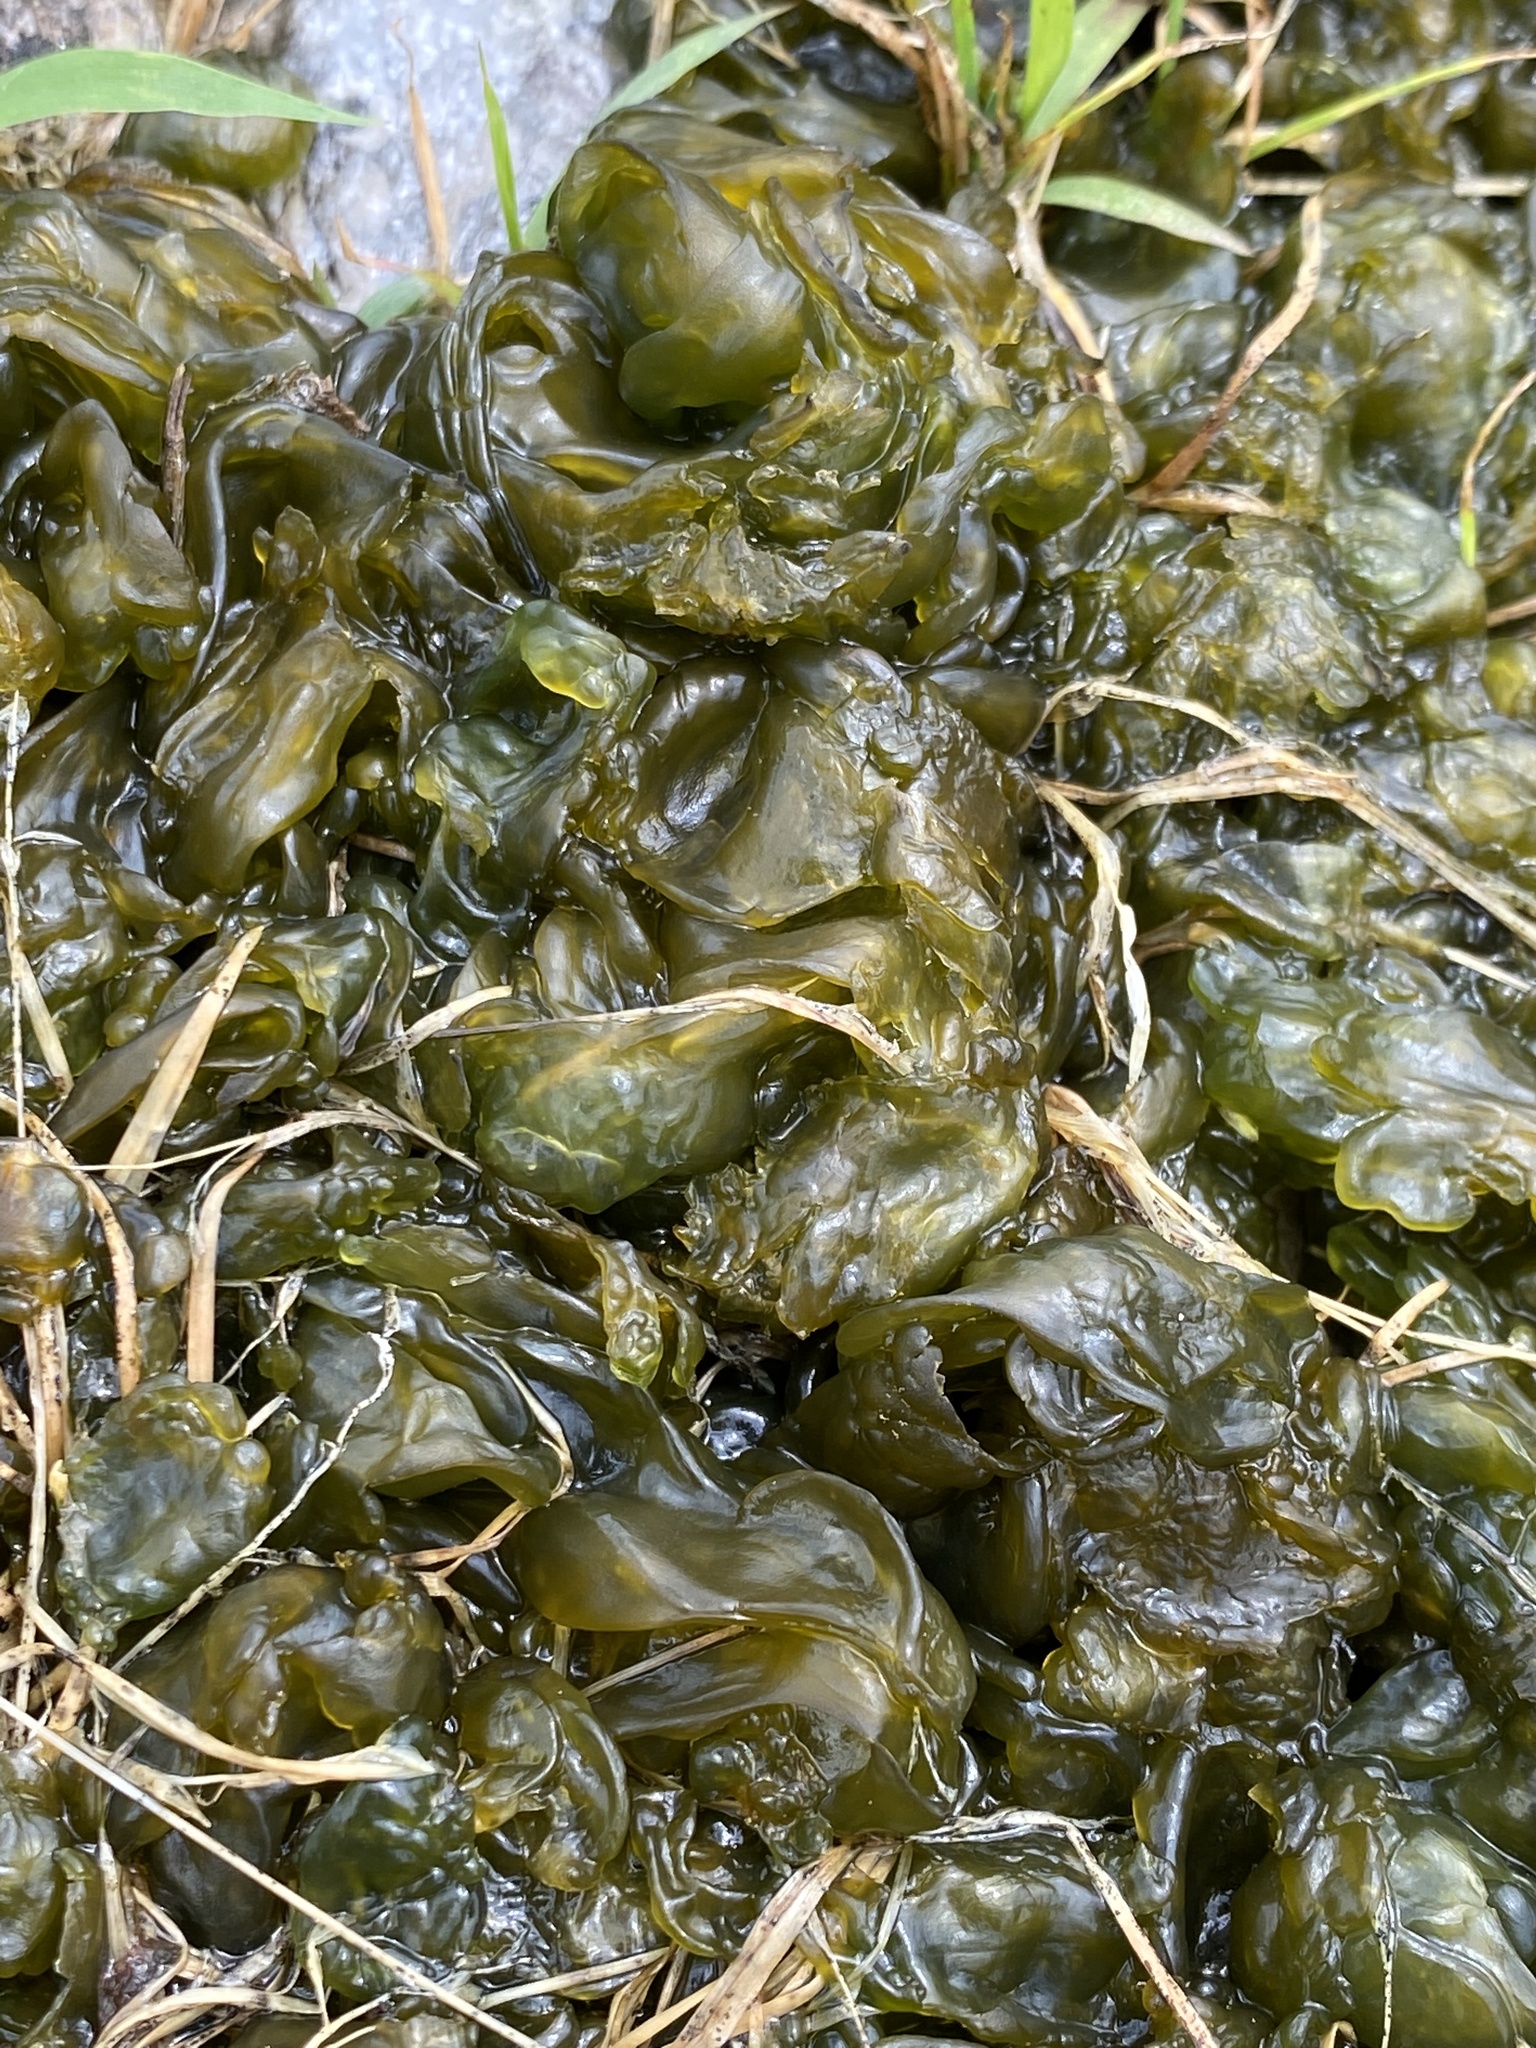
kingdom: Bacteria
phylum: Cyanobacteria
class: Cyanobacteriia
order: Cyanobacteriales
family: Nostocaceae
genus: Nostoc
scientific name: Nostoc commune
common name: Star jelly
